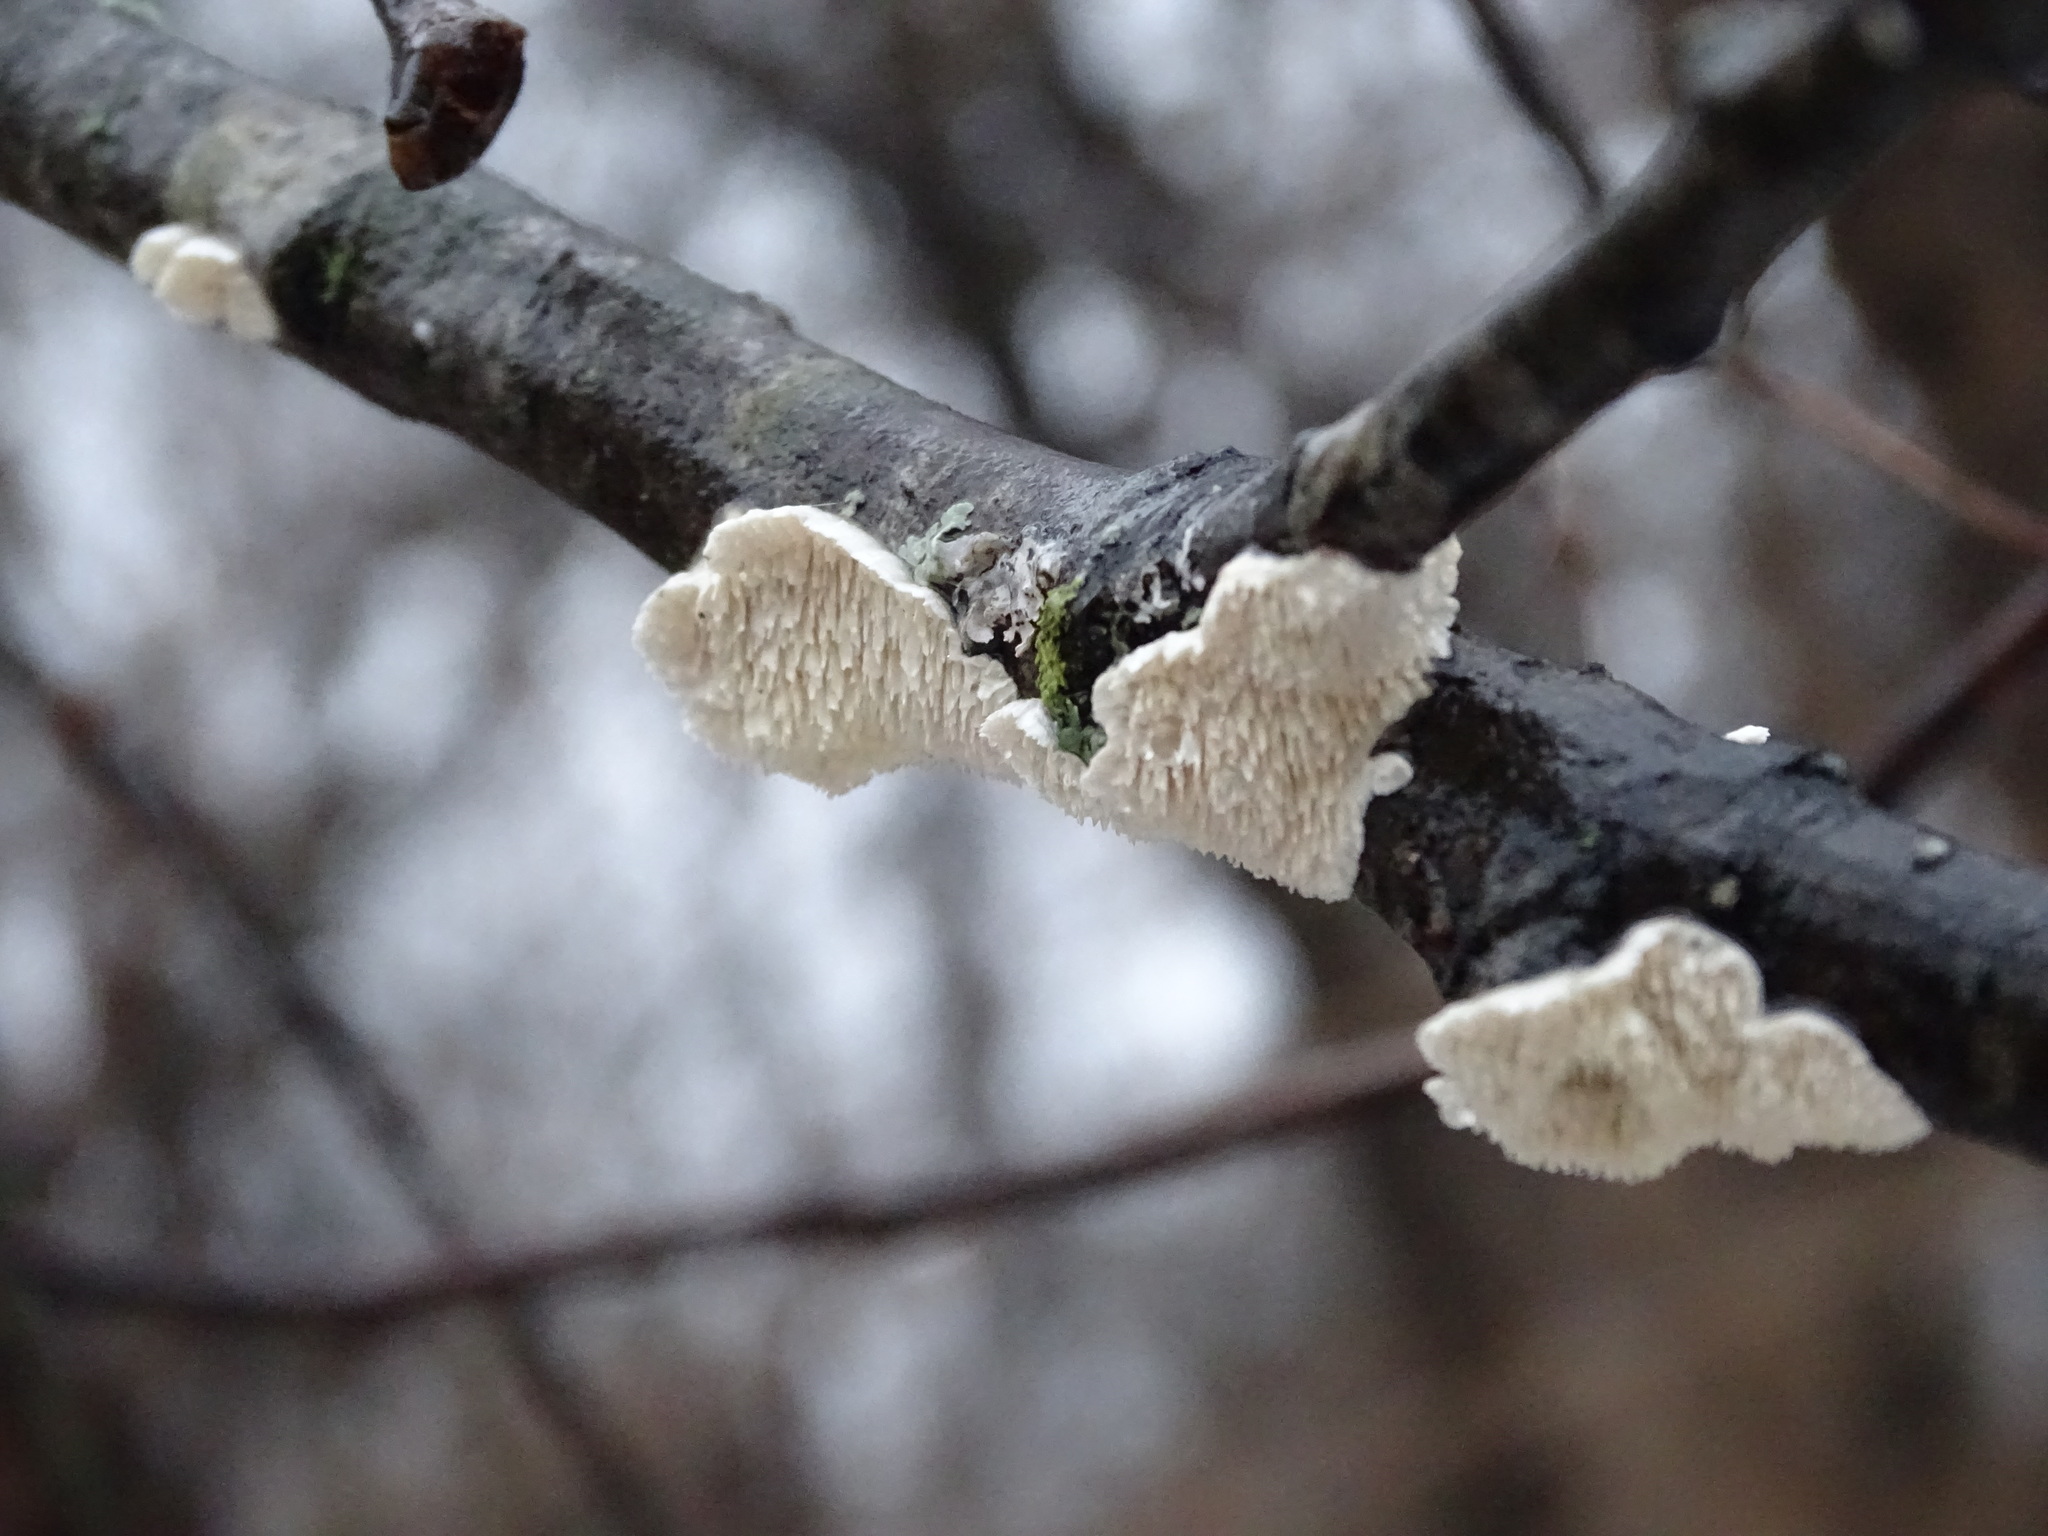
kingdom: Fungi
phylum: Basidiomycota
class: Agaricomycetes
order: Polyporales
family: Irpicaceae
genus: Irpex
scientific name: Irpex lacteus
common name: Milk-white toothed polypore
